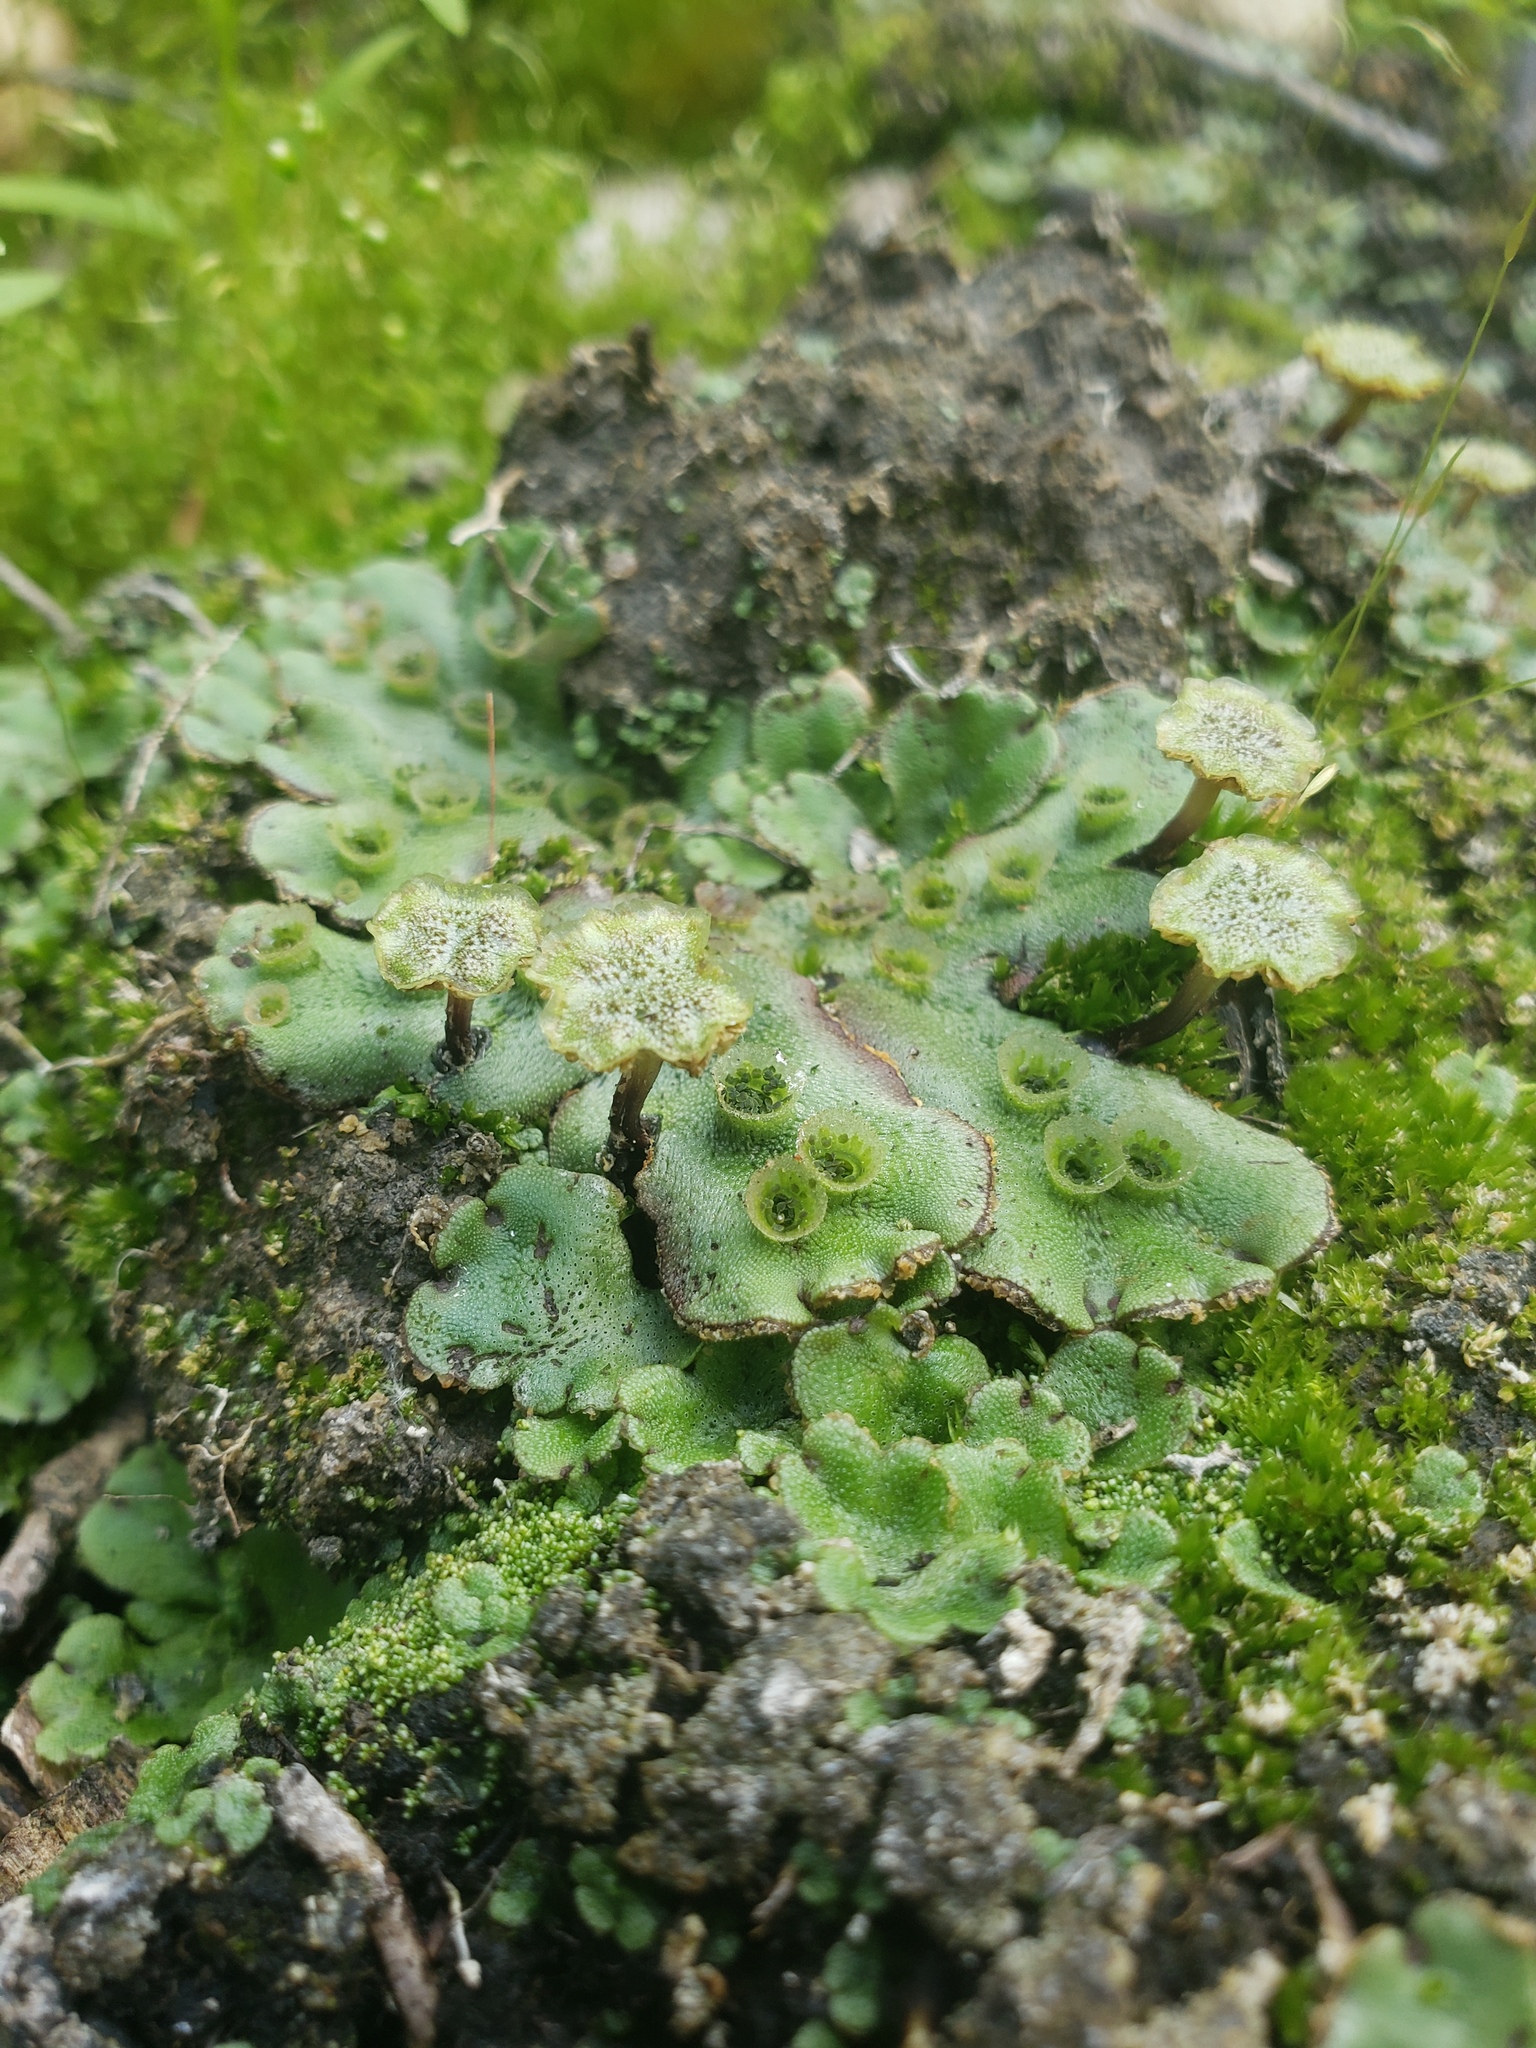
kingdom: Plantae
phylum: Marchantiophyta
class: Marchantiopsida
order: Marchantiales
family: Marchantiaceae
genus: Marchantia
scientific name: Marchantia polymorpha
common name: Common liverwort
